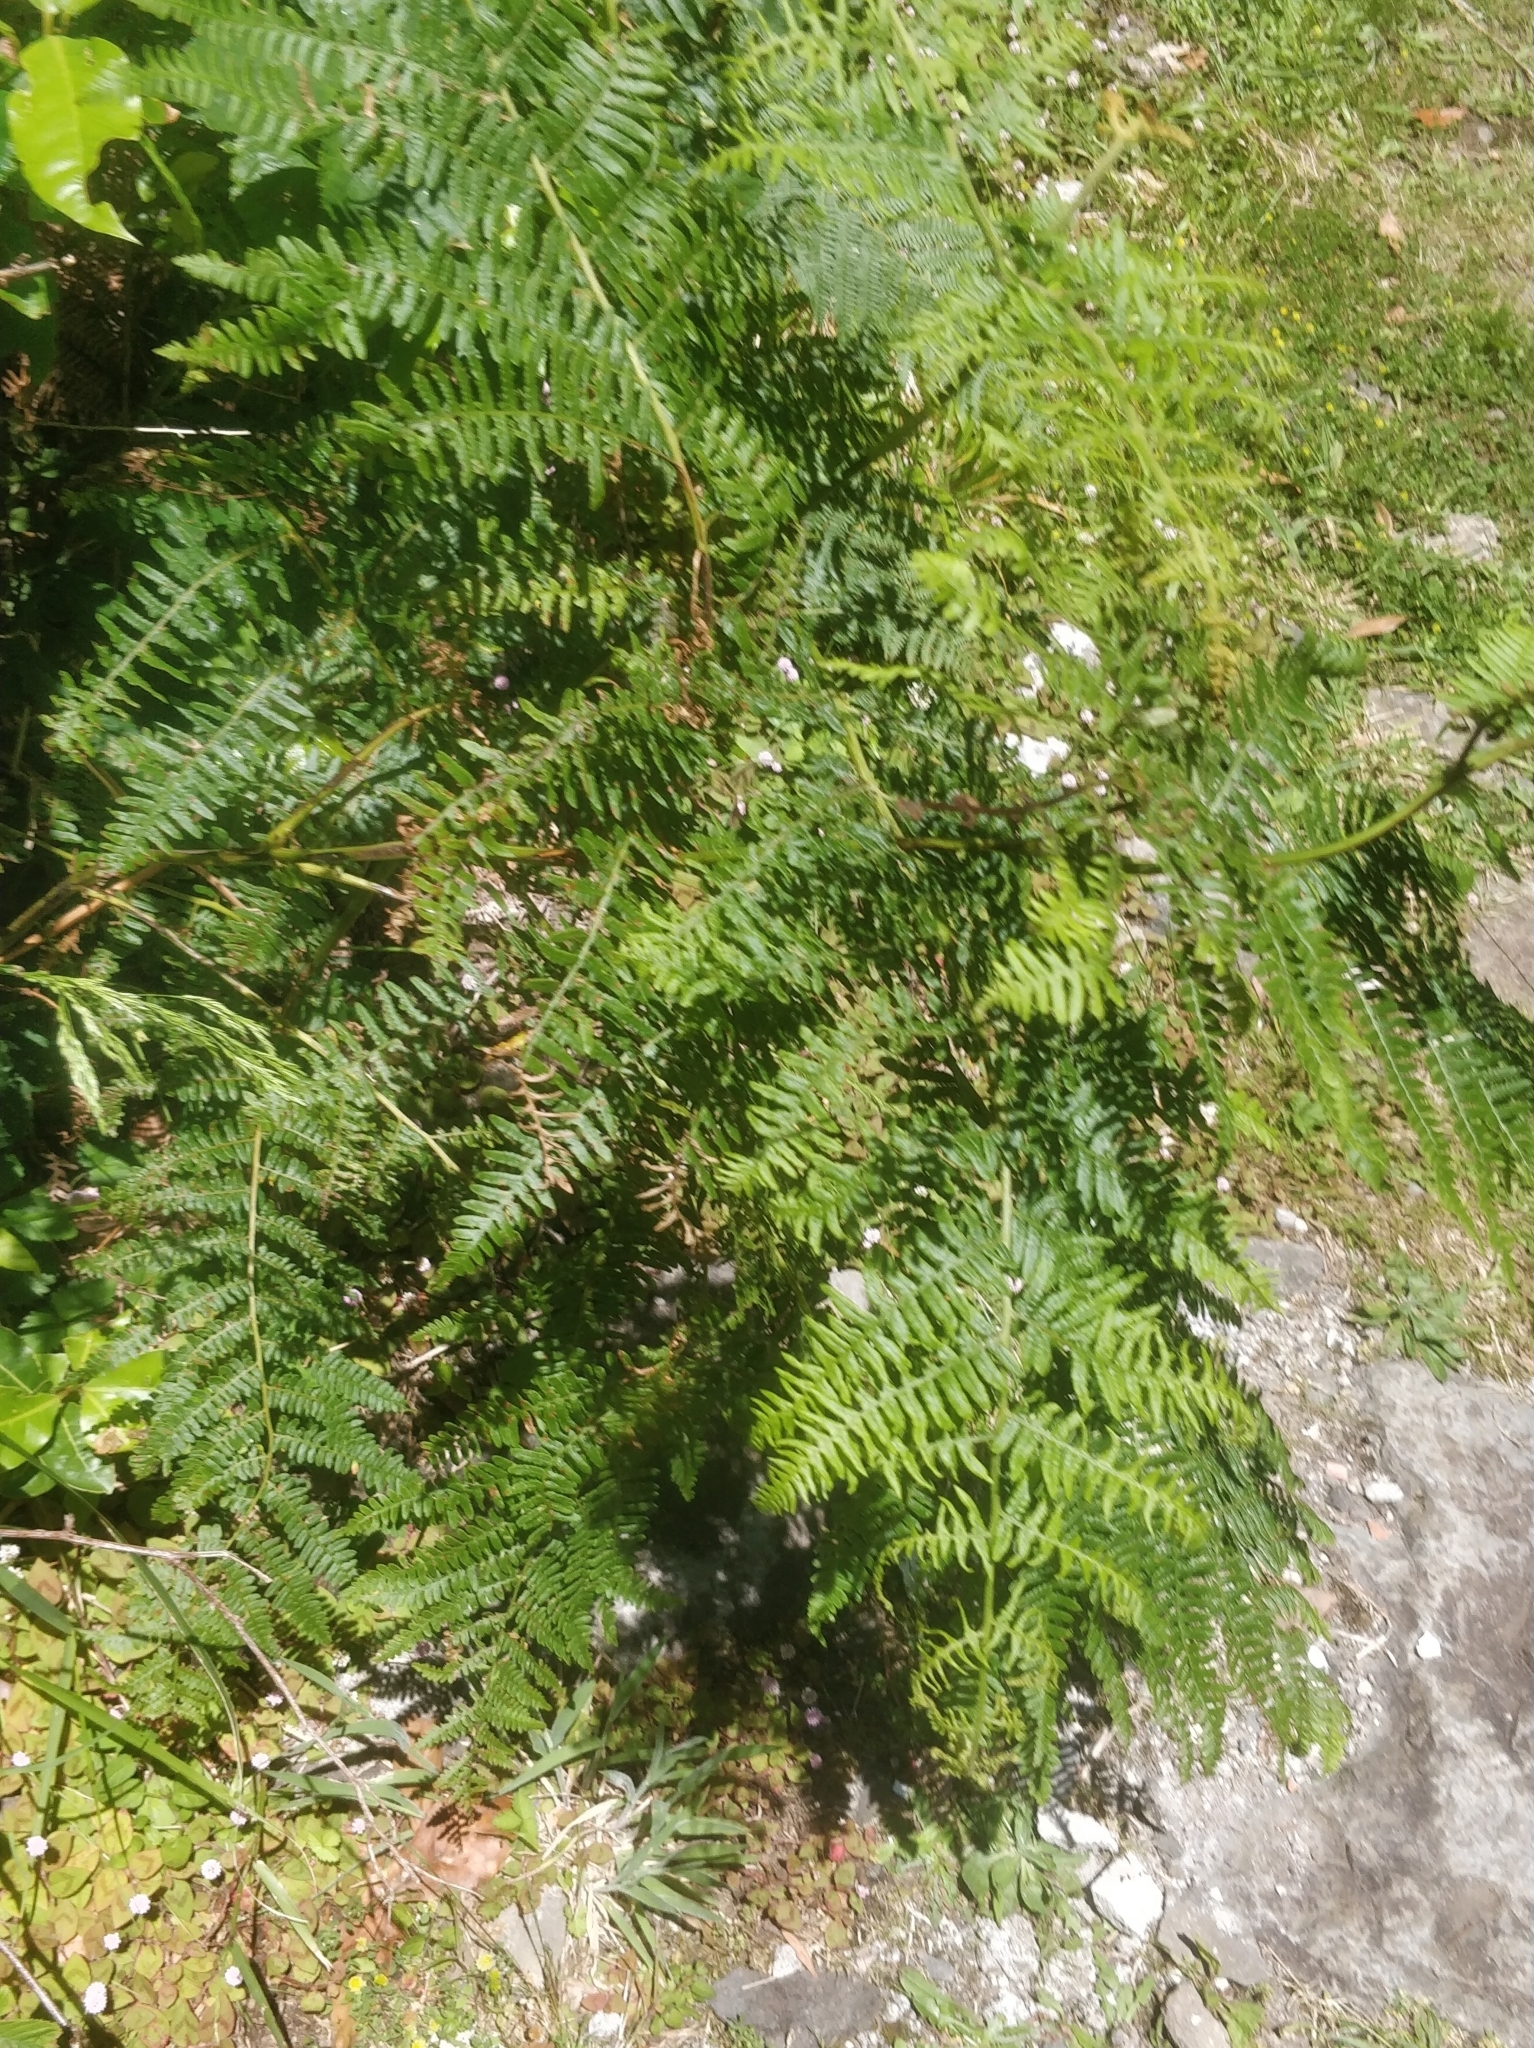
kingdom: Plantae
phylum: Tracheophyta
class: Polypodiopsida
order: Polypodiales
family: Dennstaedtiaceae
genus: Pteridium
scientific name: Pteridium aquilinum
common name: Bracken
